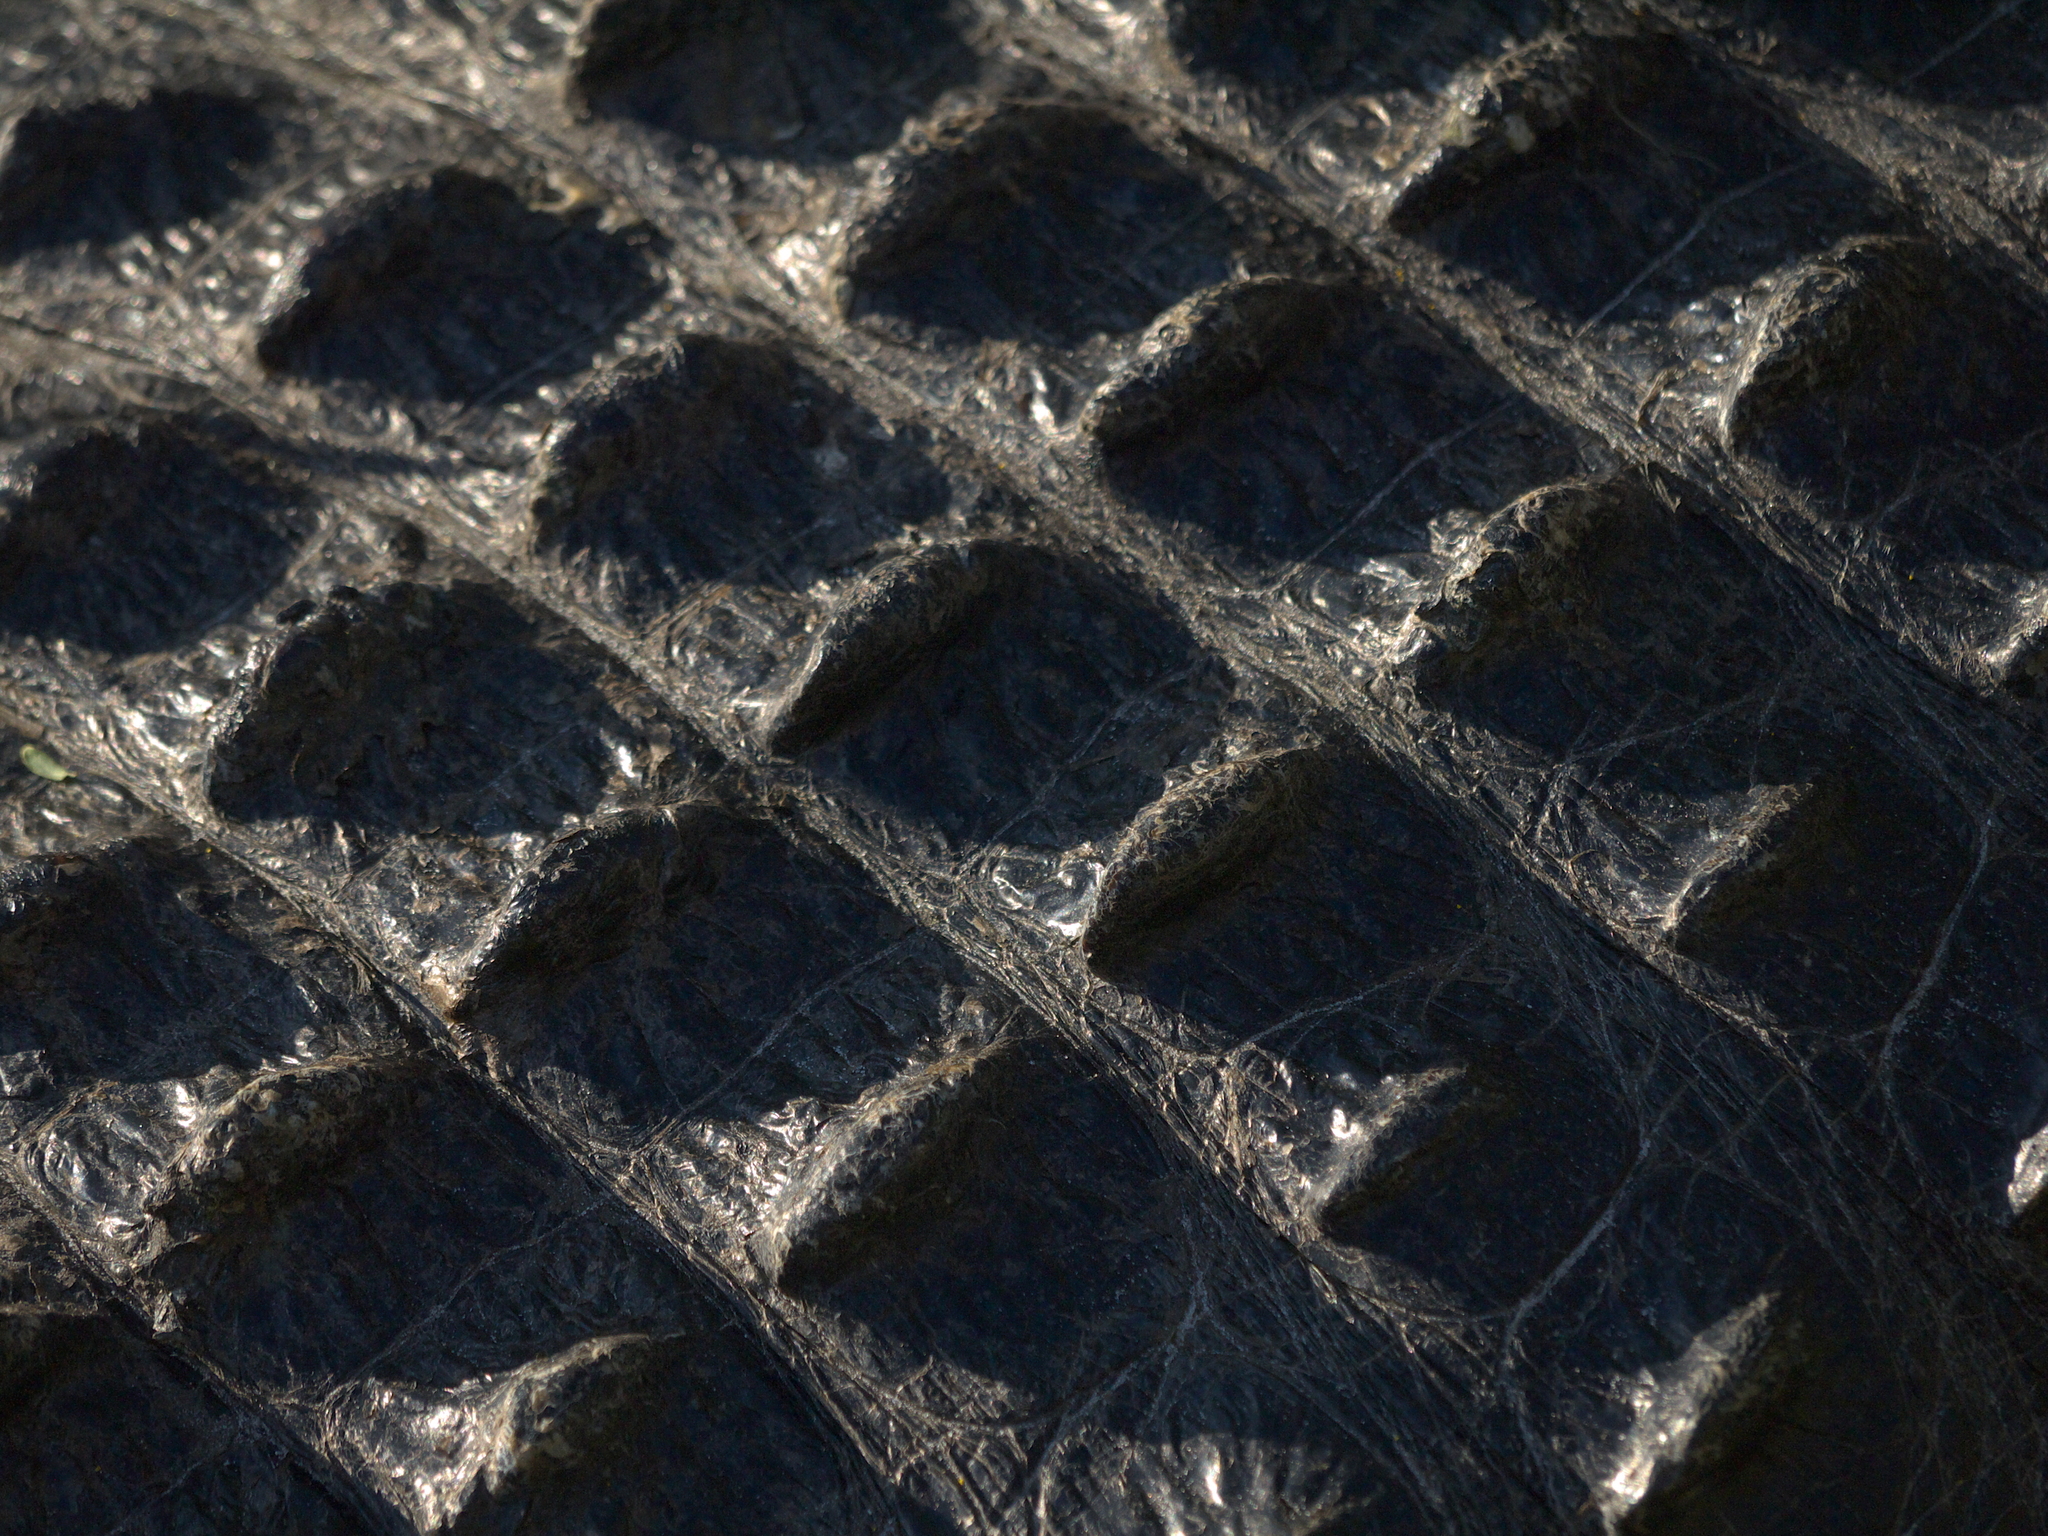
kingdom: Animalia
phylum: Chordata
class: Crocodylia
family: Alligatoridae
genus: Alligator
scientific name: Alligator mississippiensis
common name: American alligator
